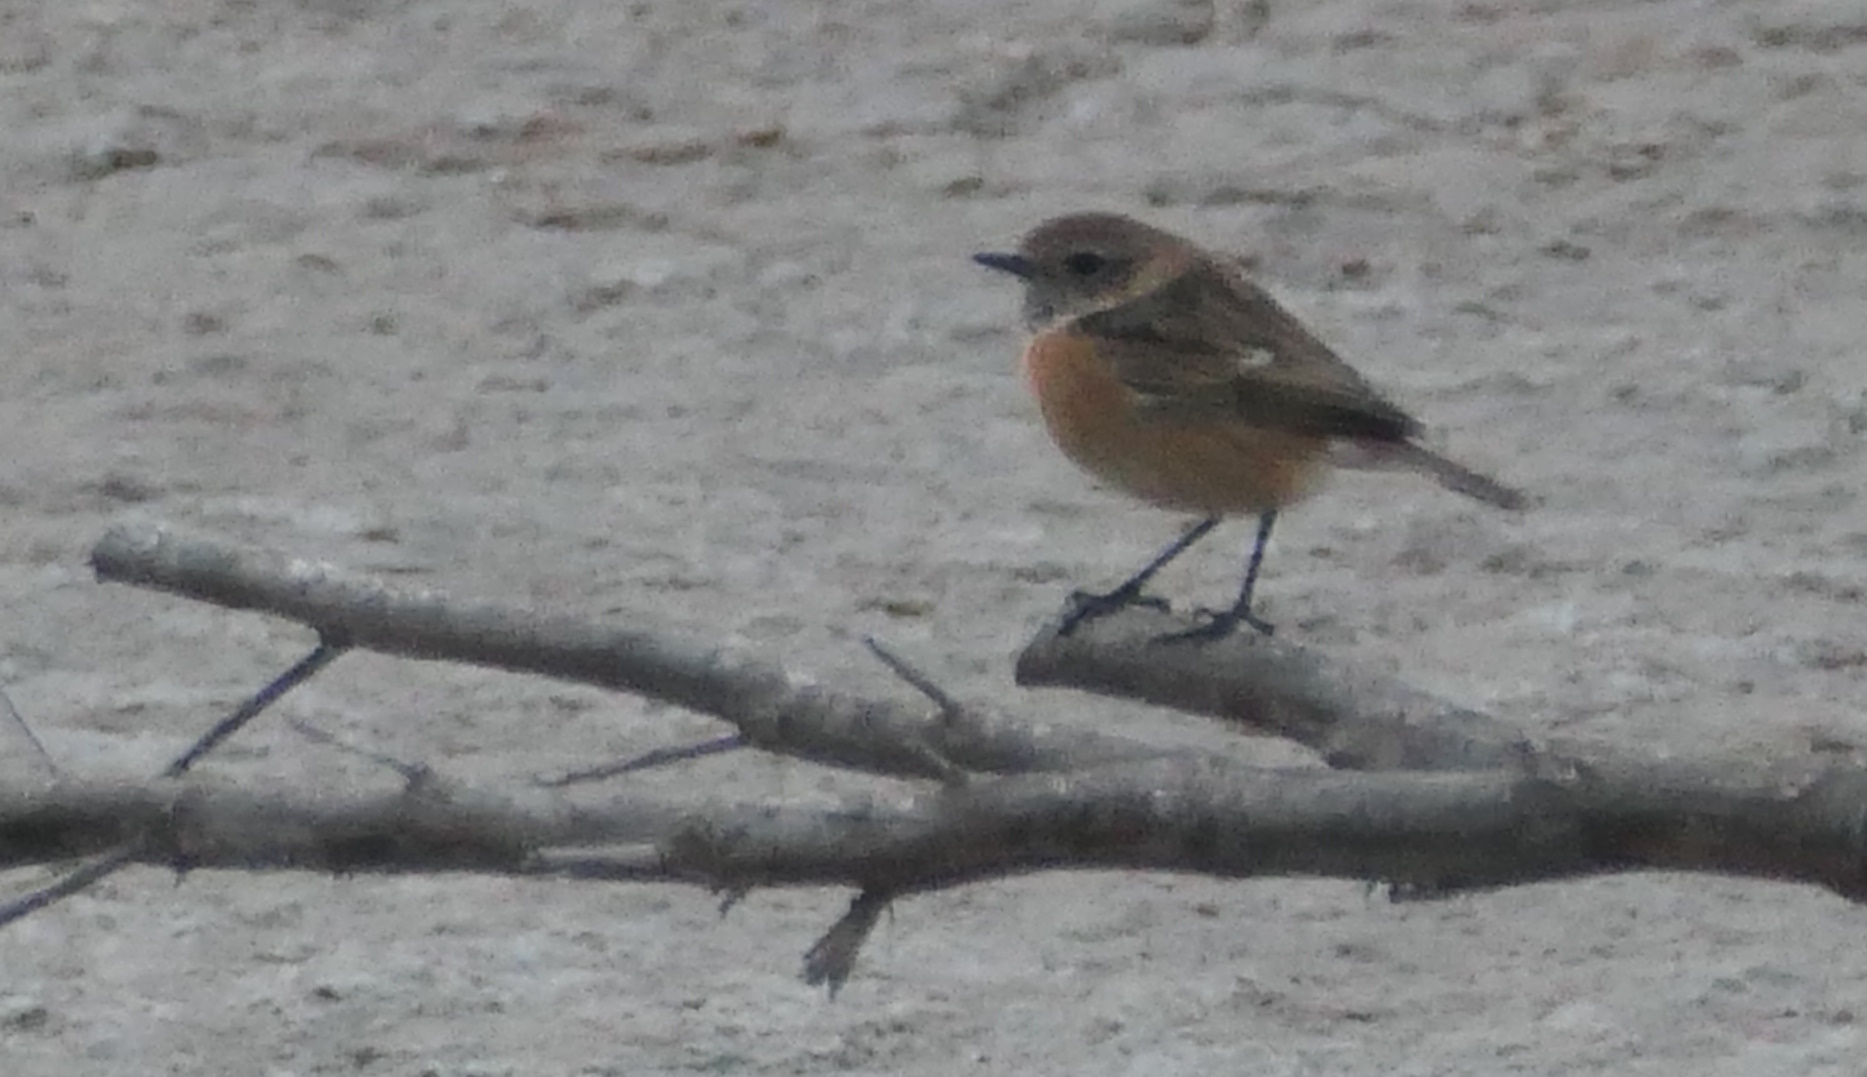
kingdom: Animalia
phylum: Chordata
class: Aves
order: Passeriformes
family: Muscicapidae
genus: Saxicola
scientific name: Saxicola rubicola
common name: European stonechat
